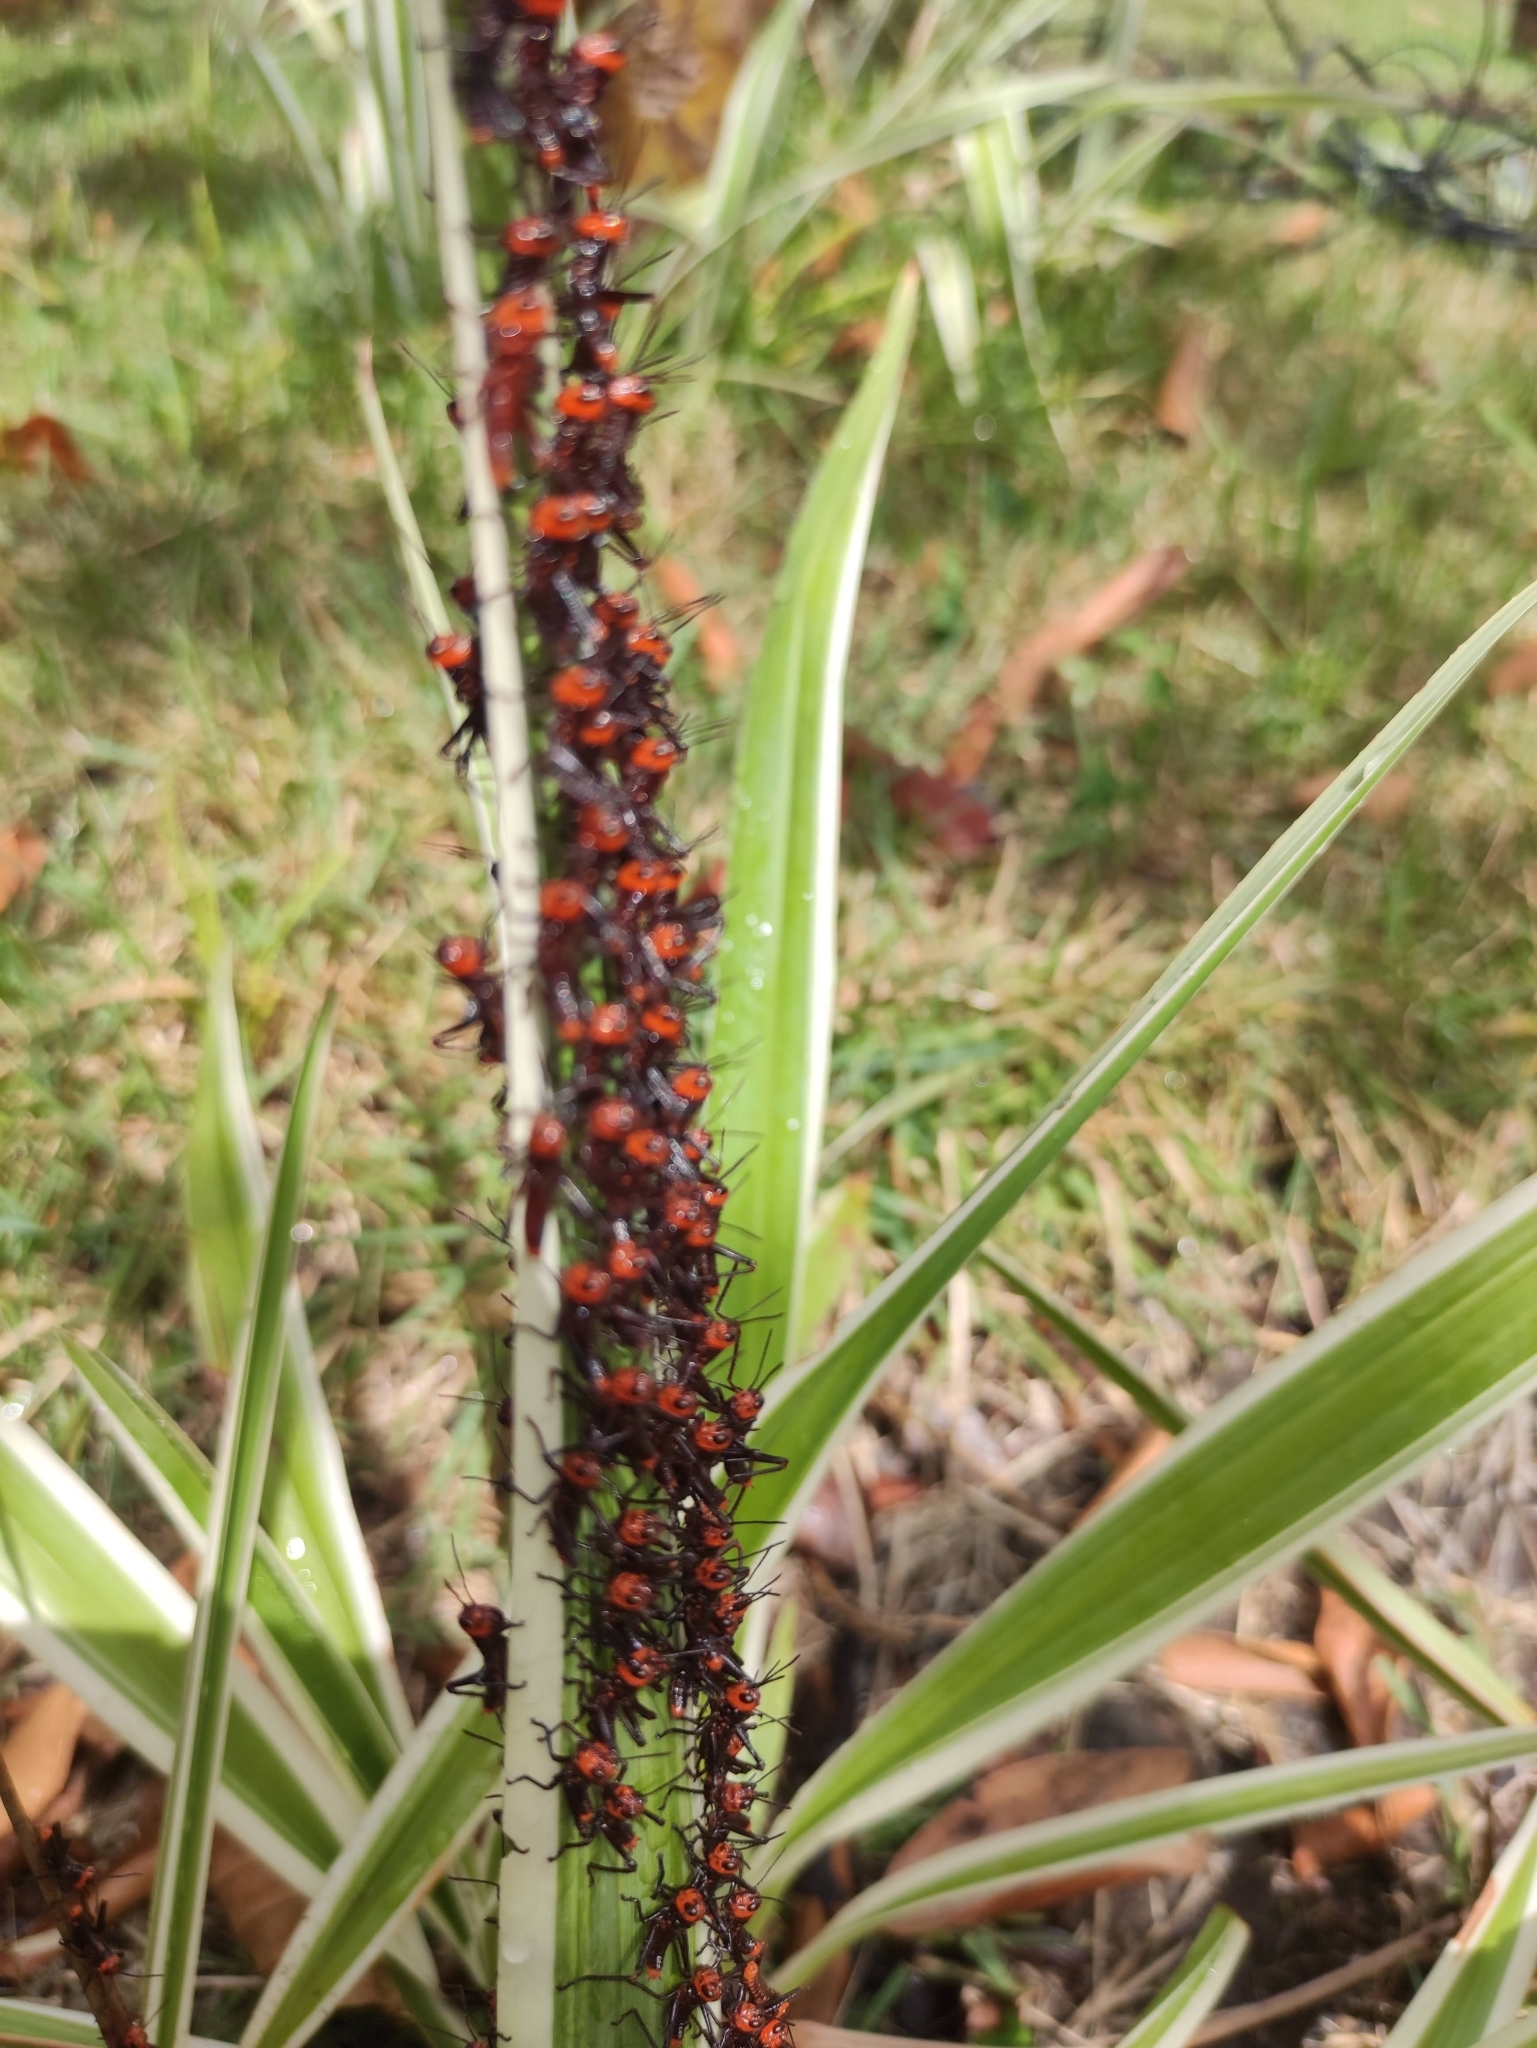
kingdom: Animalia
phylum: Arthropoda
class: Insecta
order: Orthoptera
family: Romaleidae
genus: Tropidacris
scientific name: Tropidacris collaris
